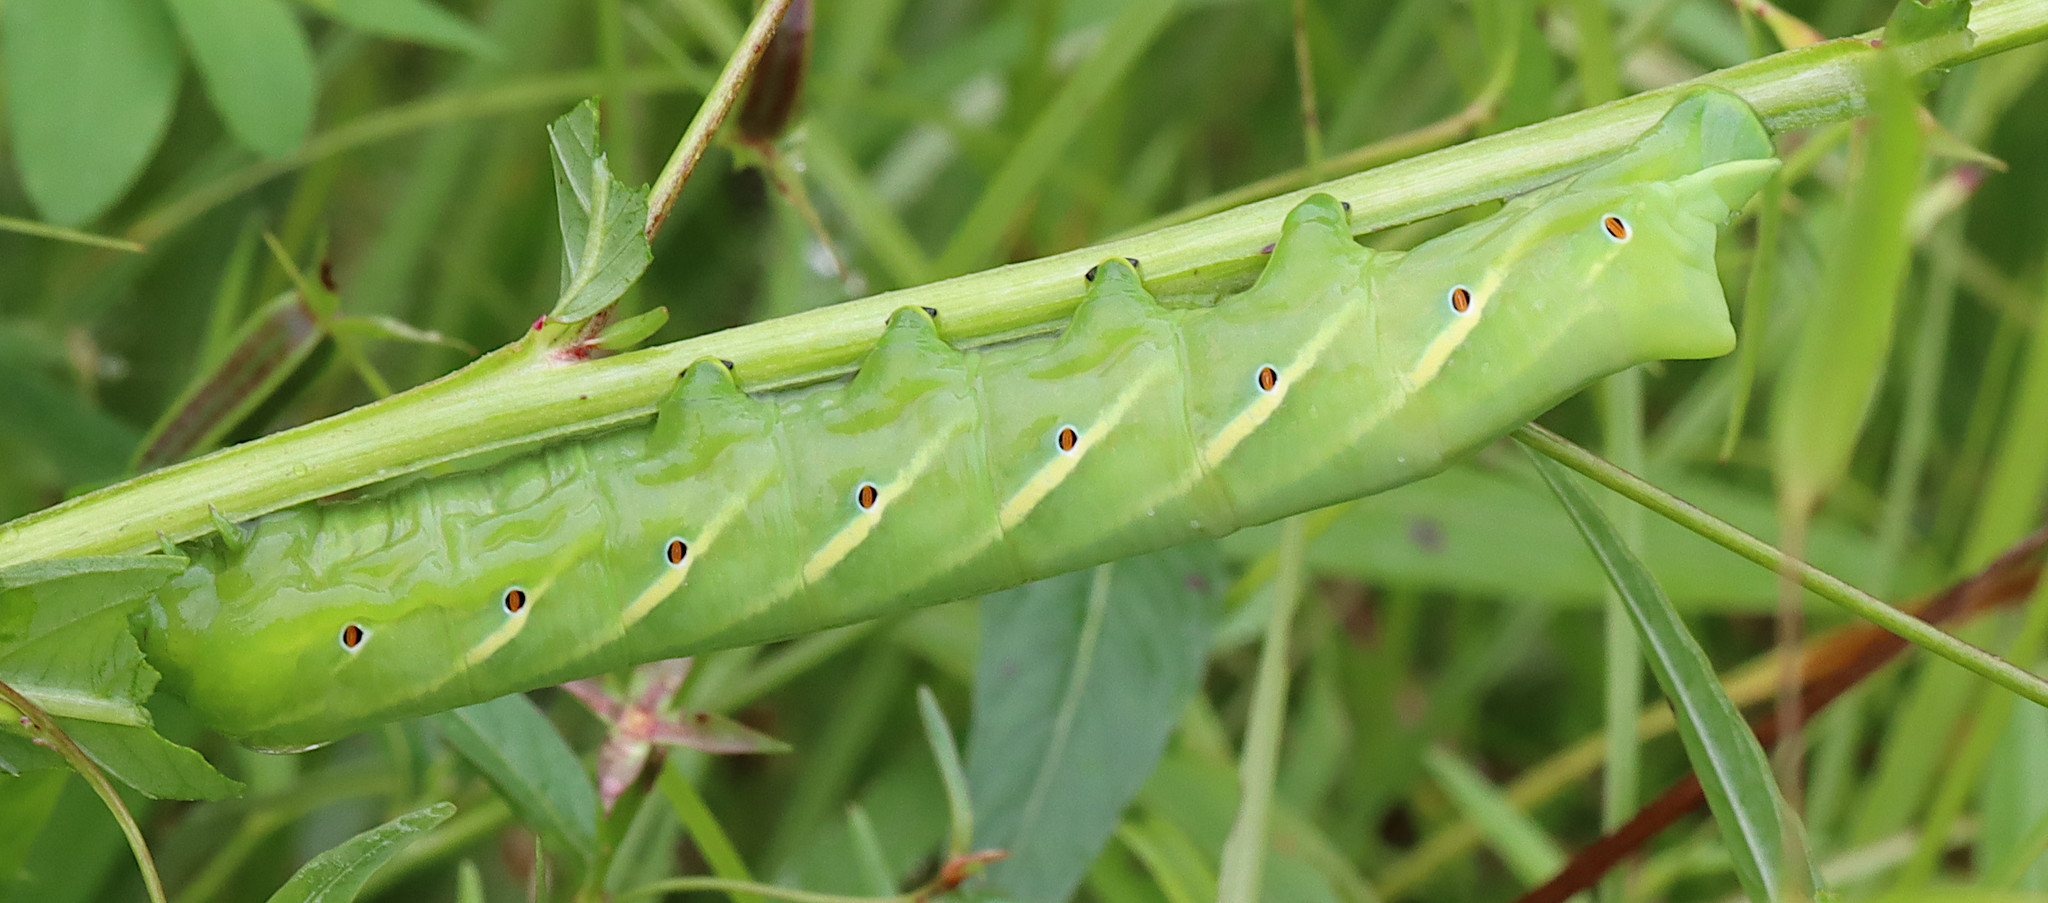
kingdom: Animalia
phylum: Arthropoda
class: Insecta
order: Lepidoptera
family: Sphingidae
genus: Eumorpha
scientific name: Eumorpha fasciatus
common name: Banded sphinx
